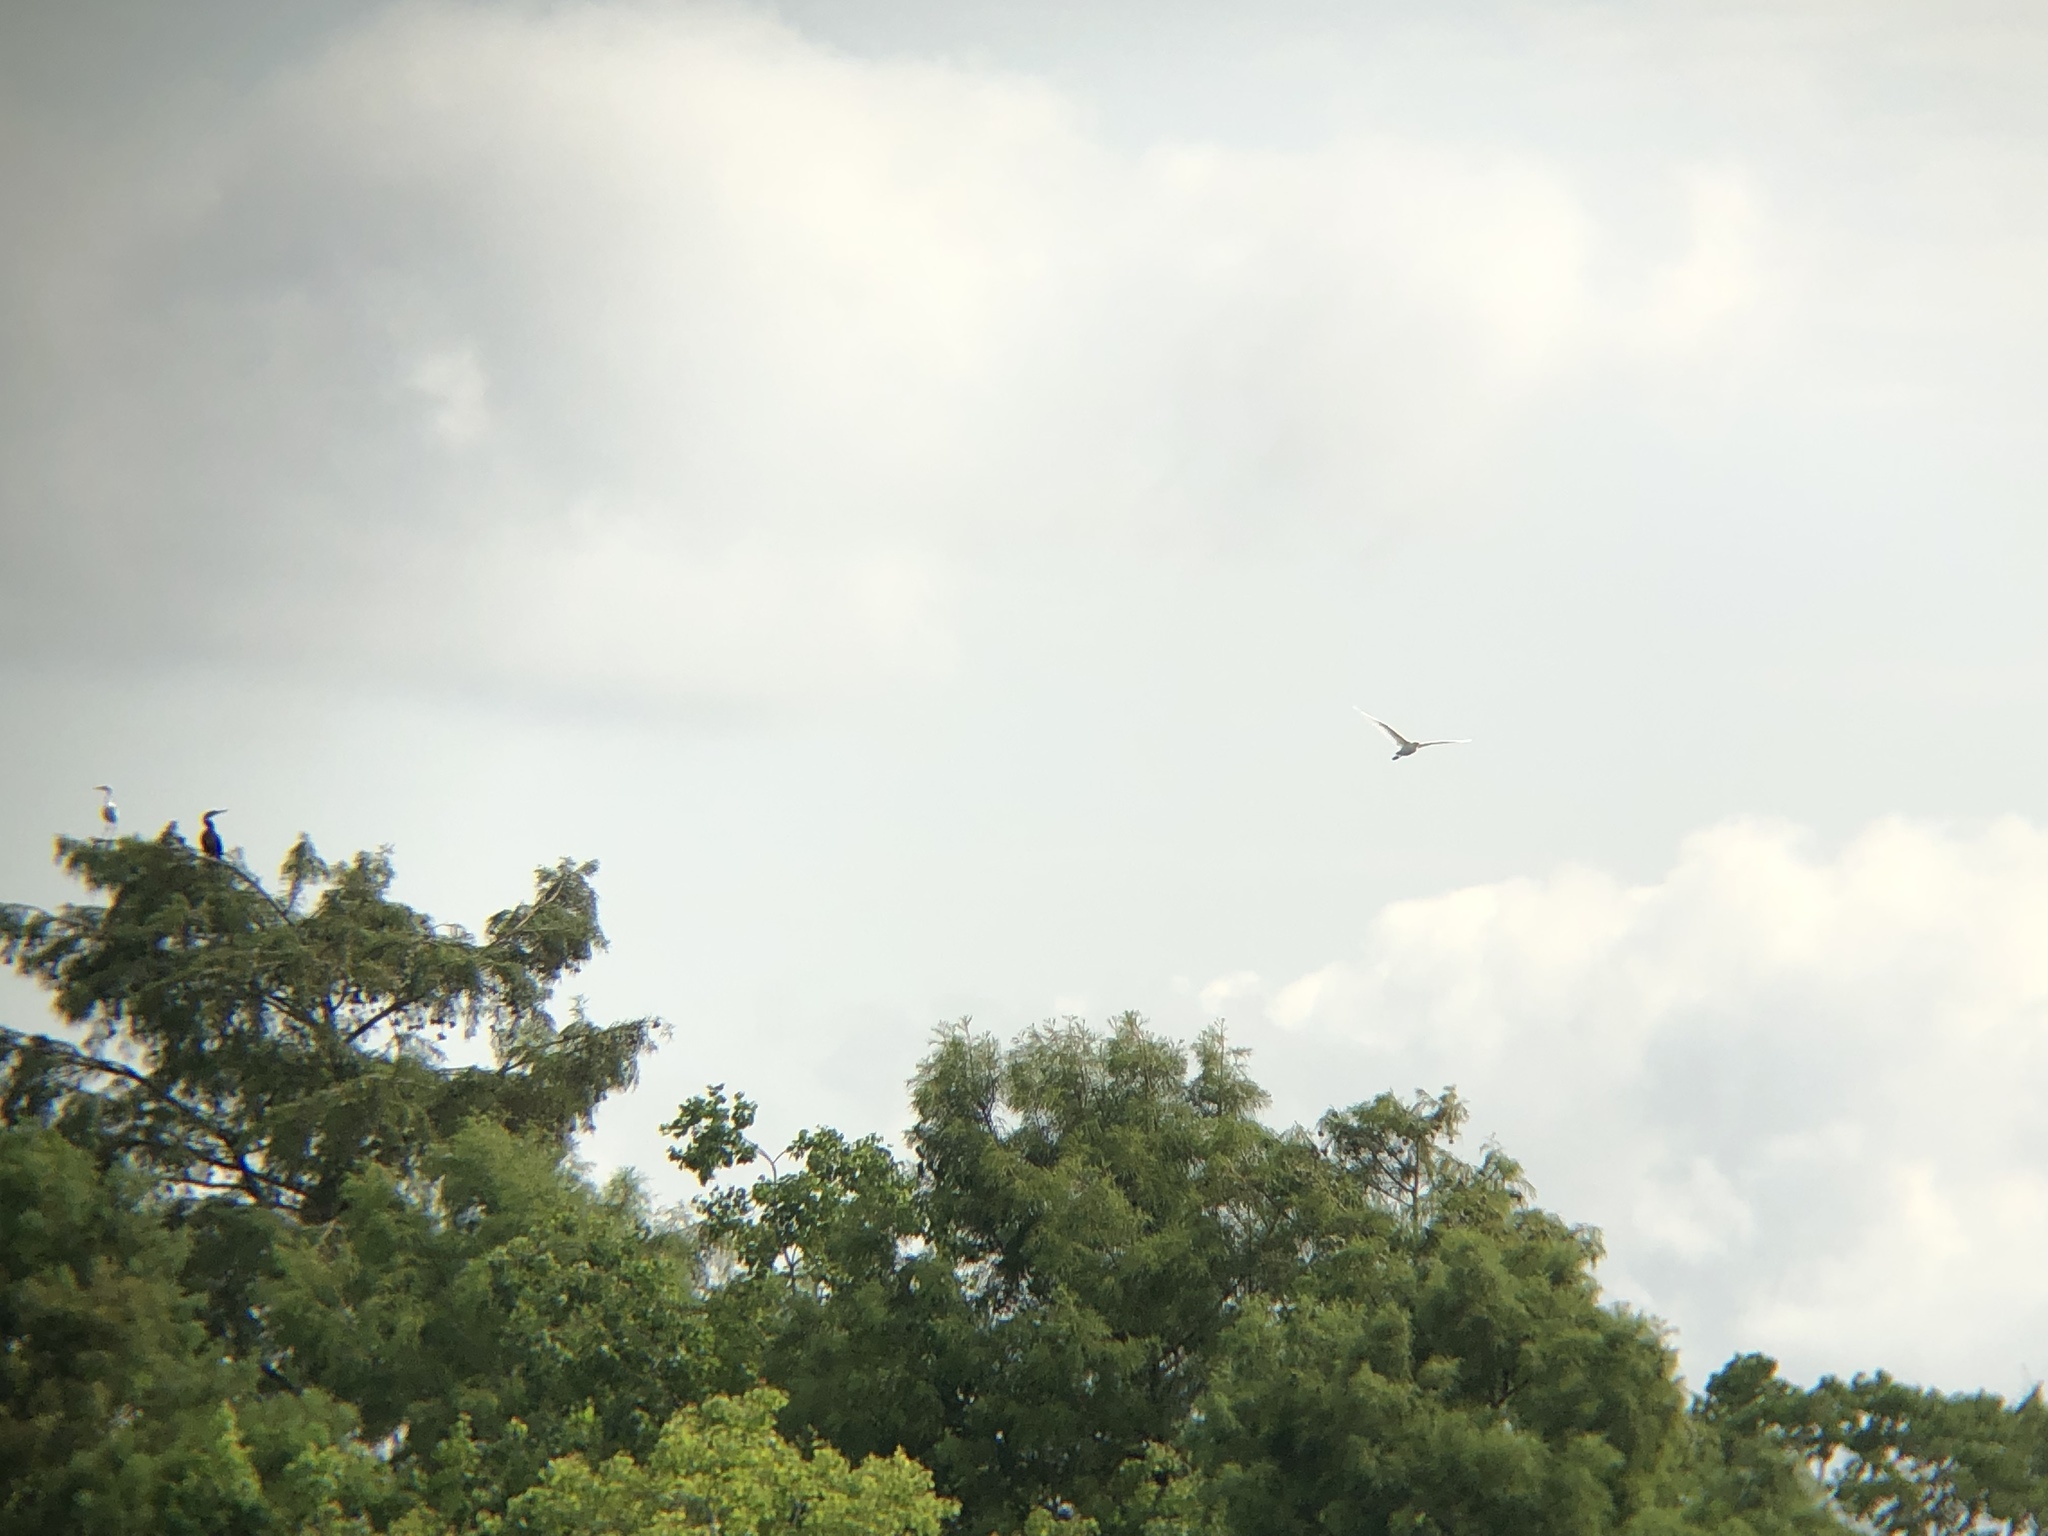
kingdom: Animalia
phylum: Chordata
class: Aves
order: Suliformes
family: Anhingidae
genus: Anhinga
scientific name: Anhinga anhinga
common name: Anhinga
